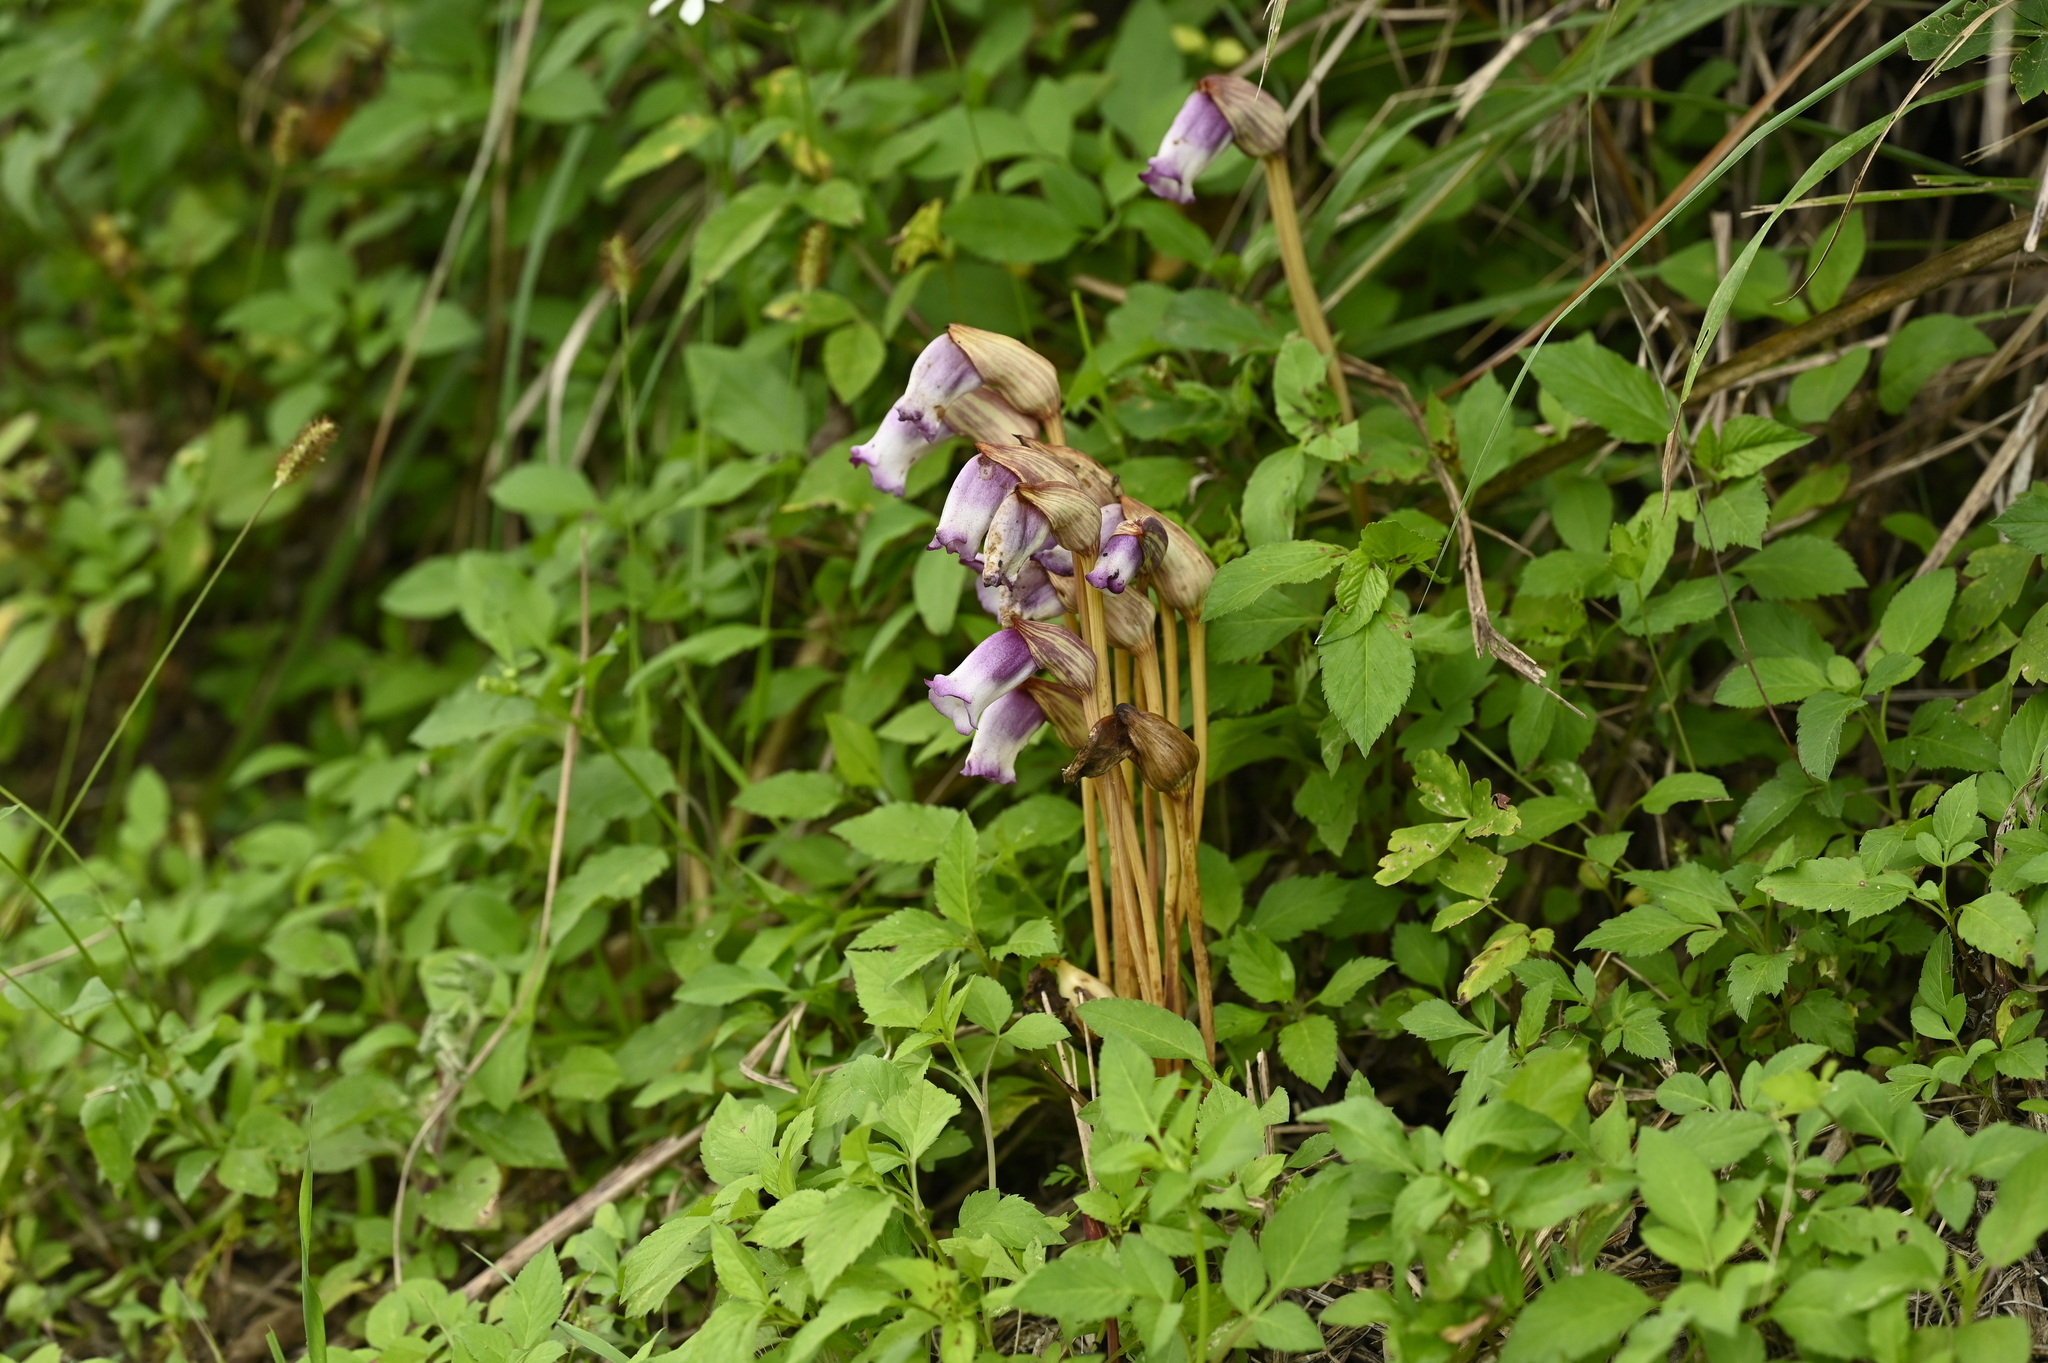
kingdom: Plantae
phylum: Tracheophyta
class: Magnoliopsida
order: Lamiales
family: Orobanchaceae
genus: Aeginetia
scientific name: Aeginetia indica
